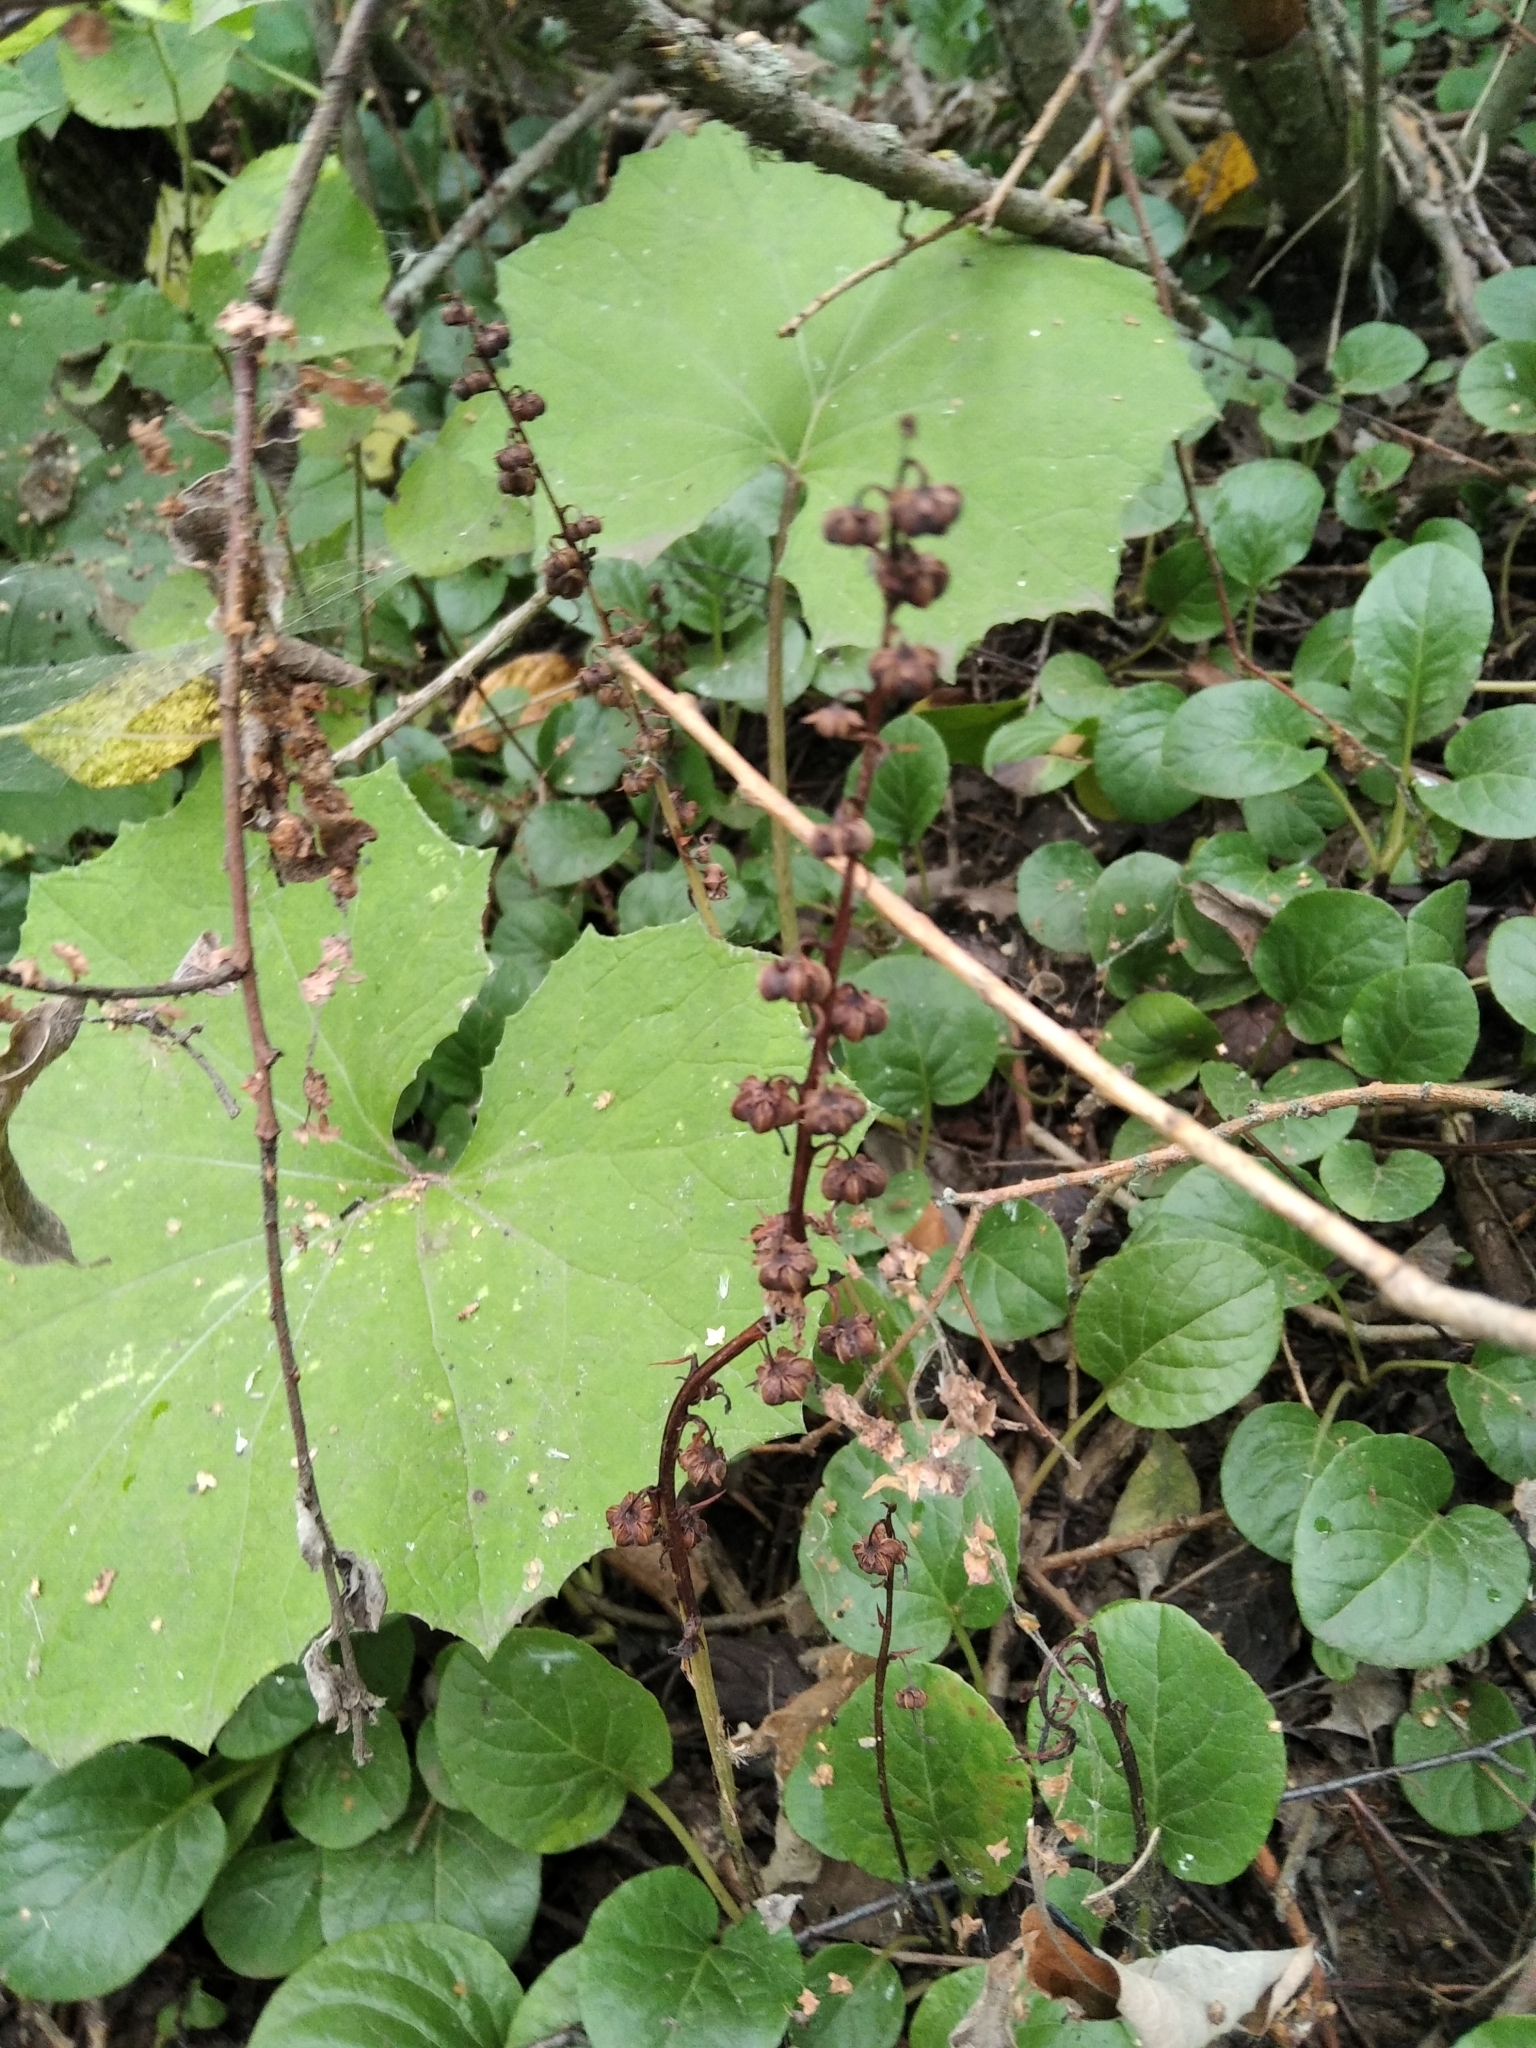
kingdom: Plantae
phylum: Tracheophyta
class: Magnoliopsida
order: Ericales
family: Ericaceae
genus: Pyrola
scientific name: Pyrola rotundifolia
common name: Round-leaved wintergreen
